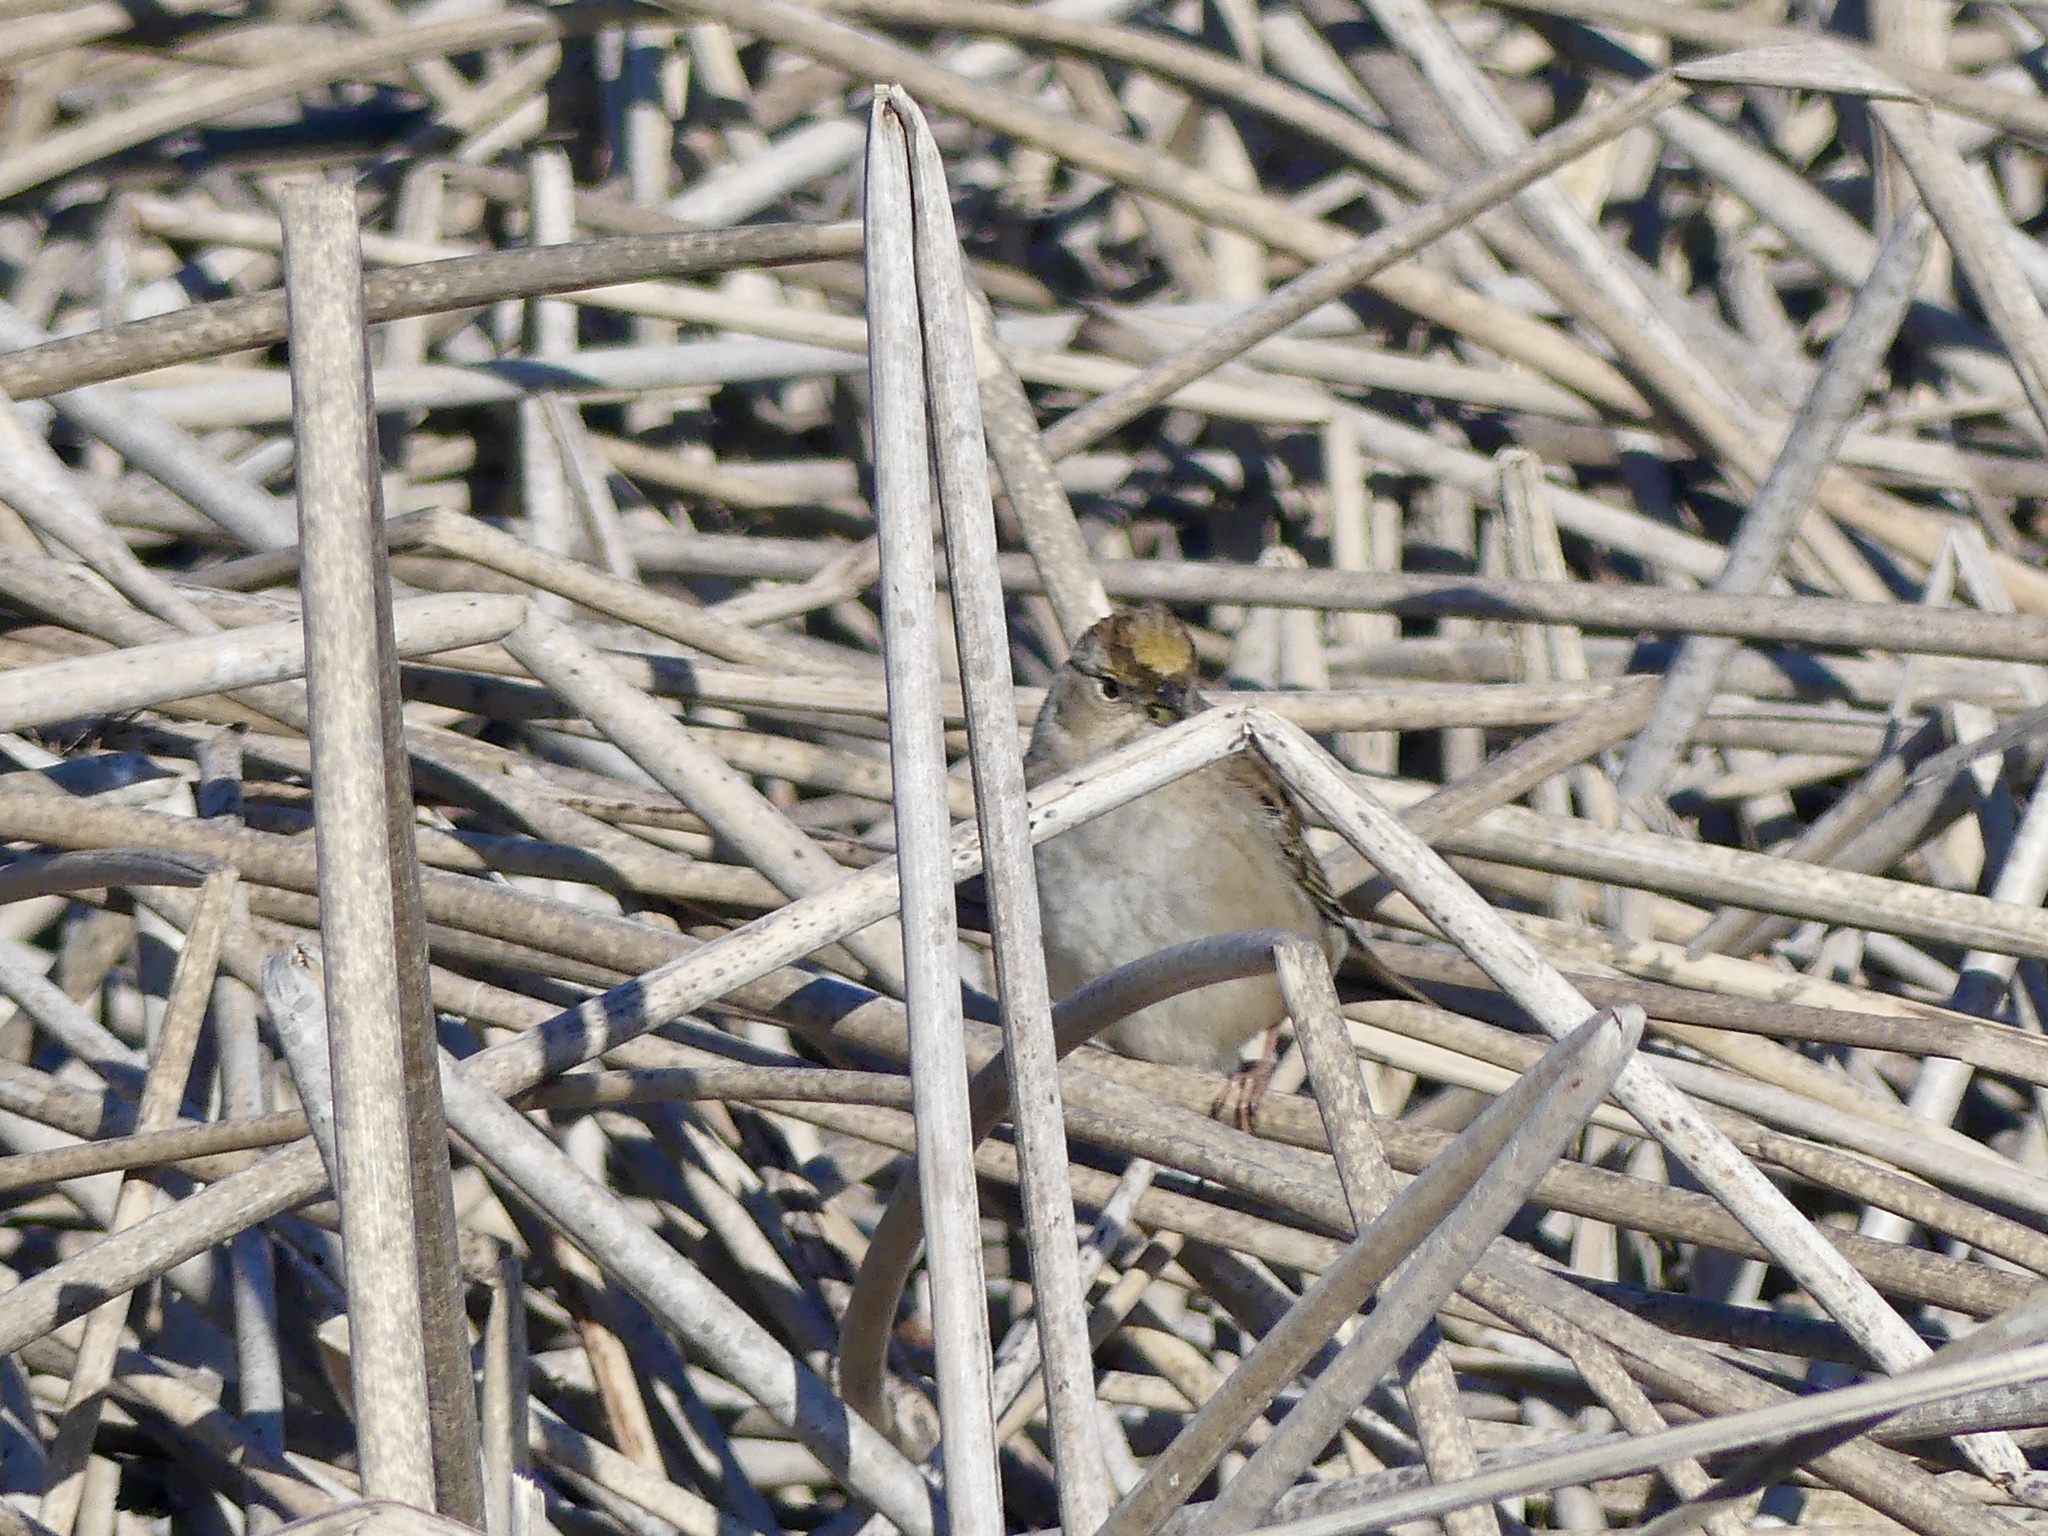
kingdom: Animalia
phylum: Chordata
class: Aves
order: Passeriformes
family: Passerellidae
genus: Zonotrichia
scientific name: Zonotrichia atricapilla
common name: Golden-crowned sparrow
